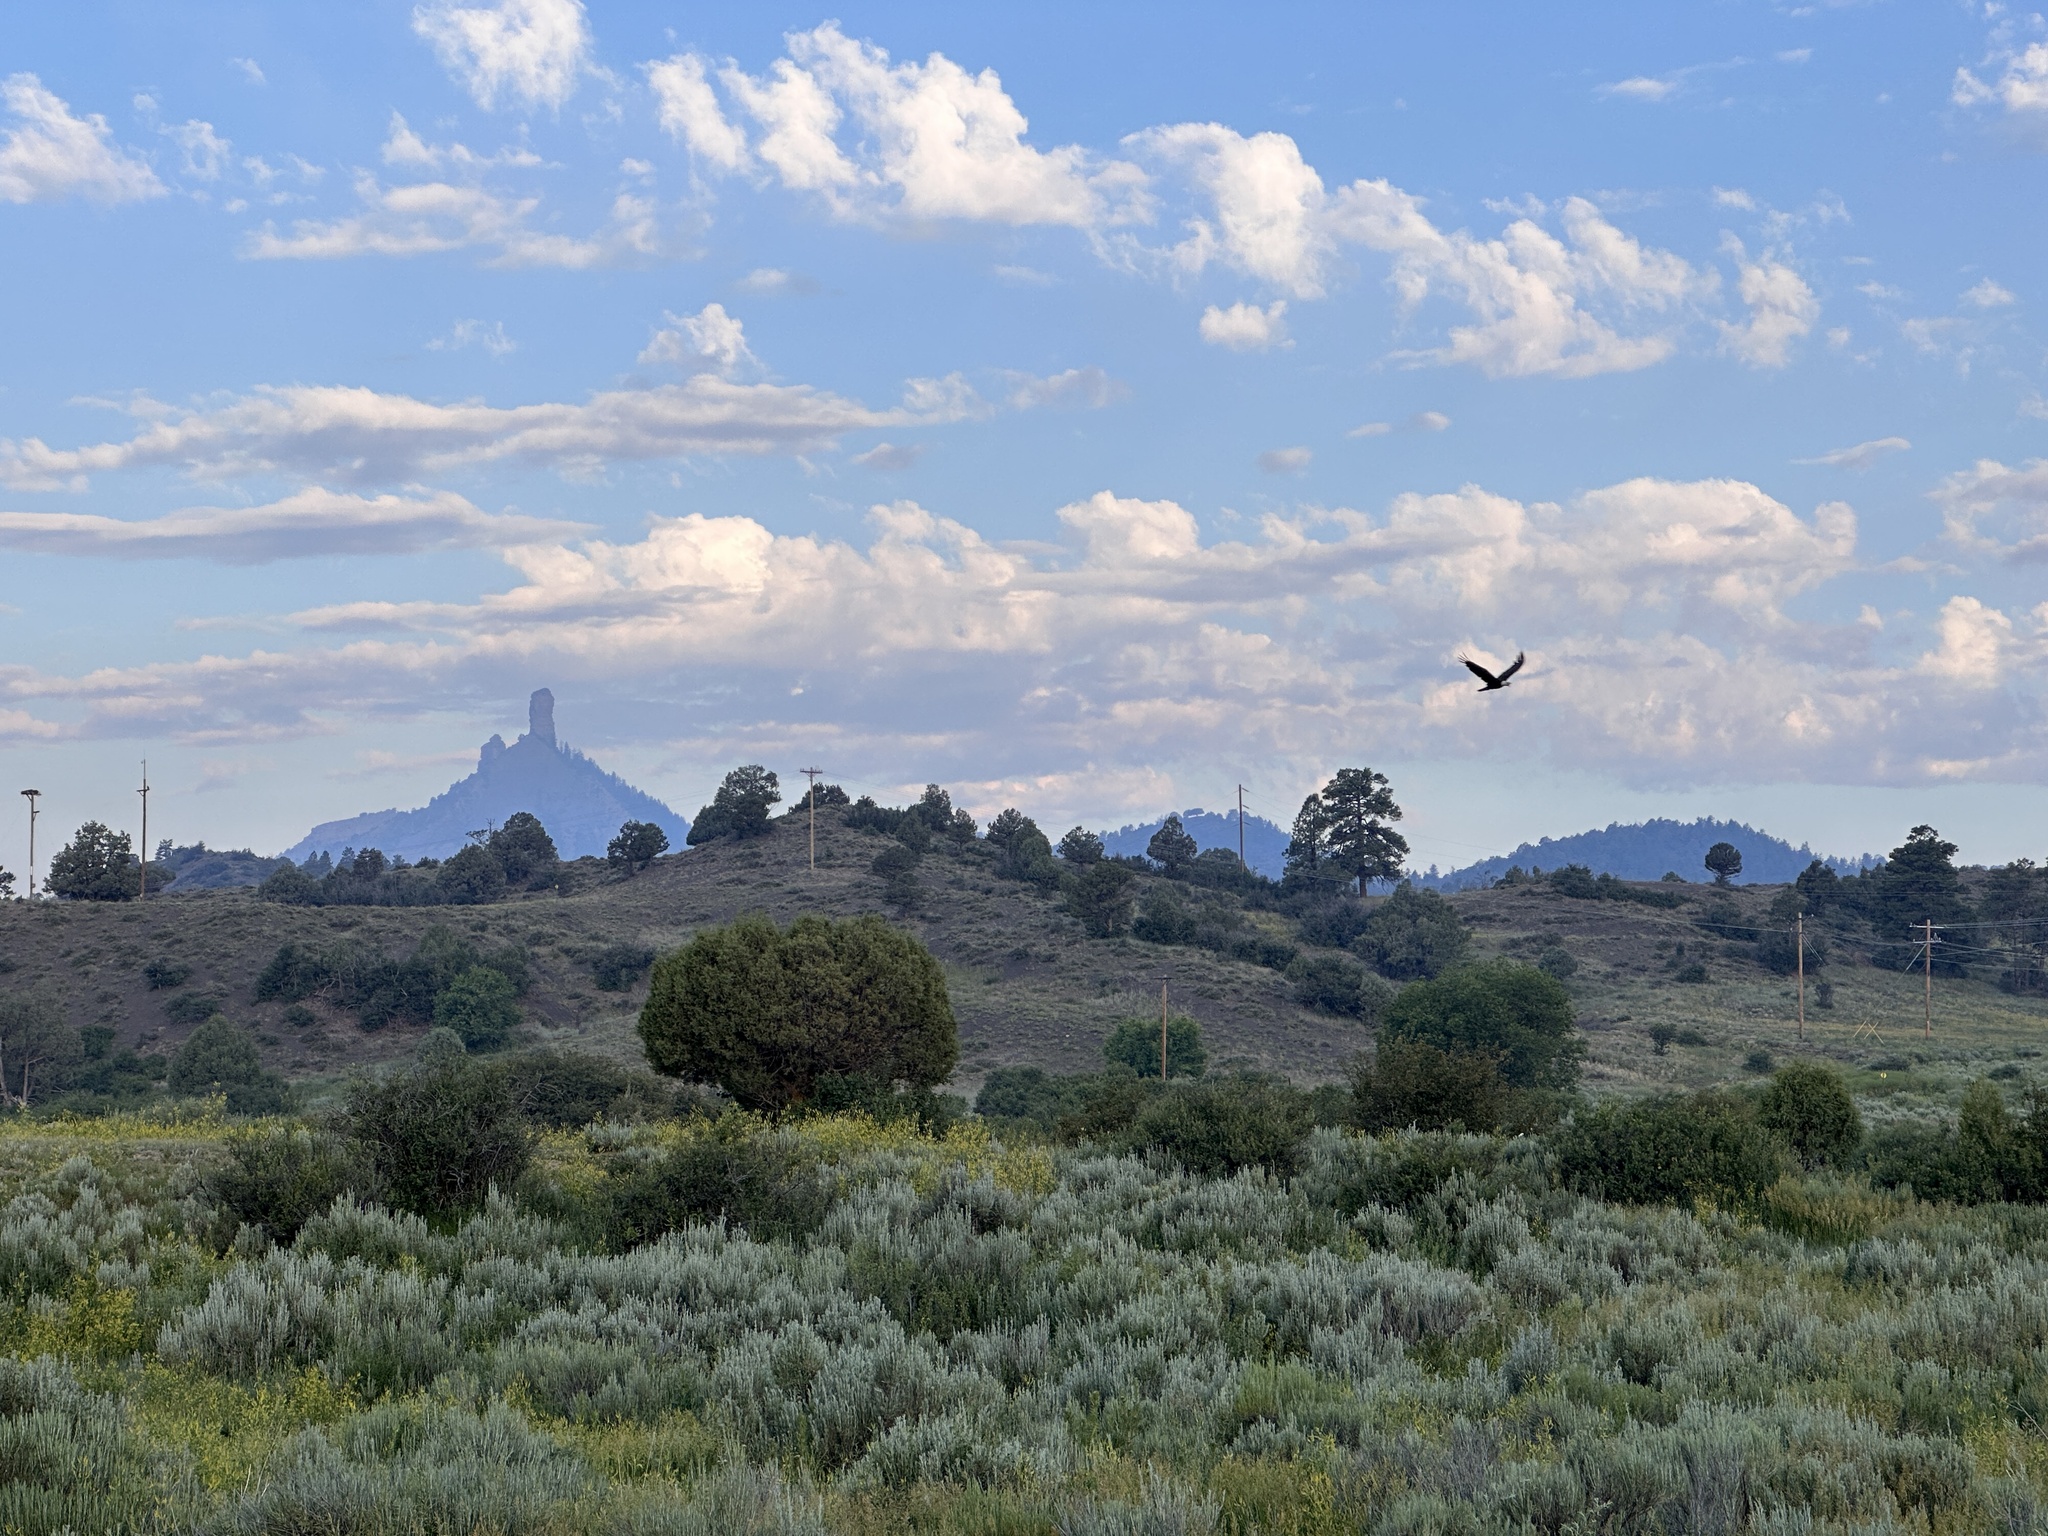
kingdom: Animalia
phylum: Chordata
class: Aves
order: Accipitriformes
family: Accipitridae
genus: Haliaeetus
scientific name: Haliaeetus leucocephalus
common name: Bald eagle
